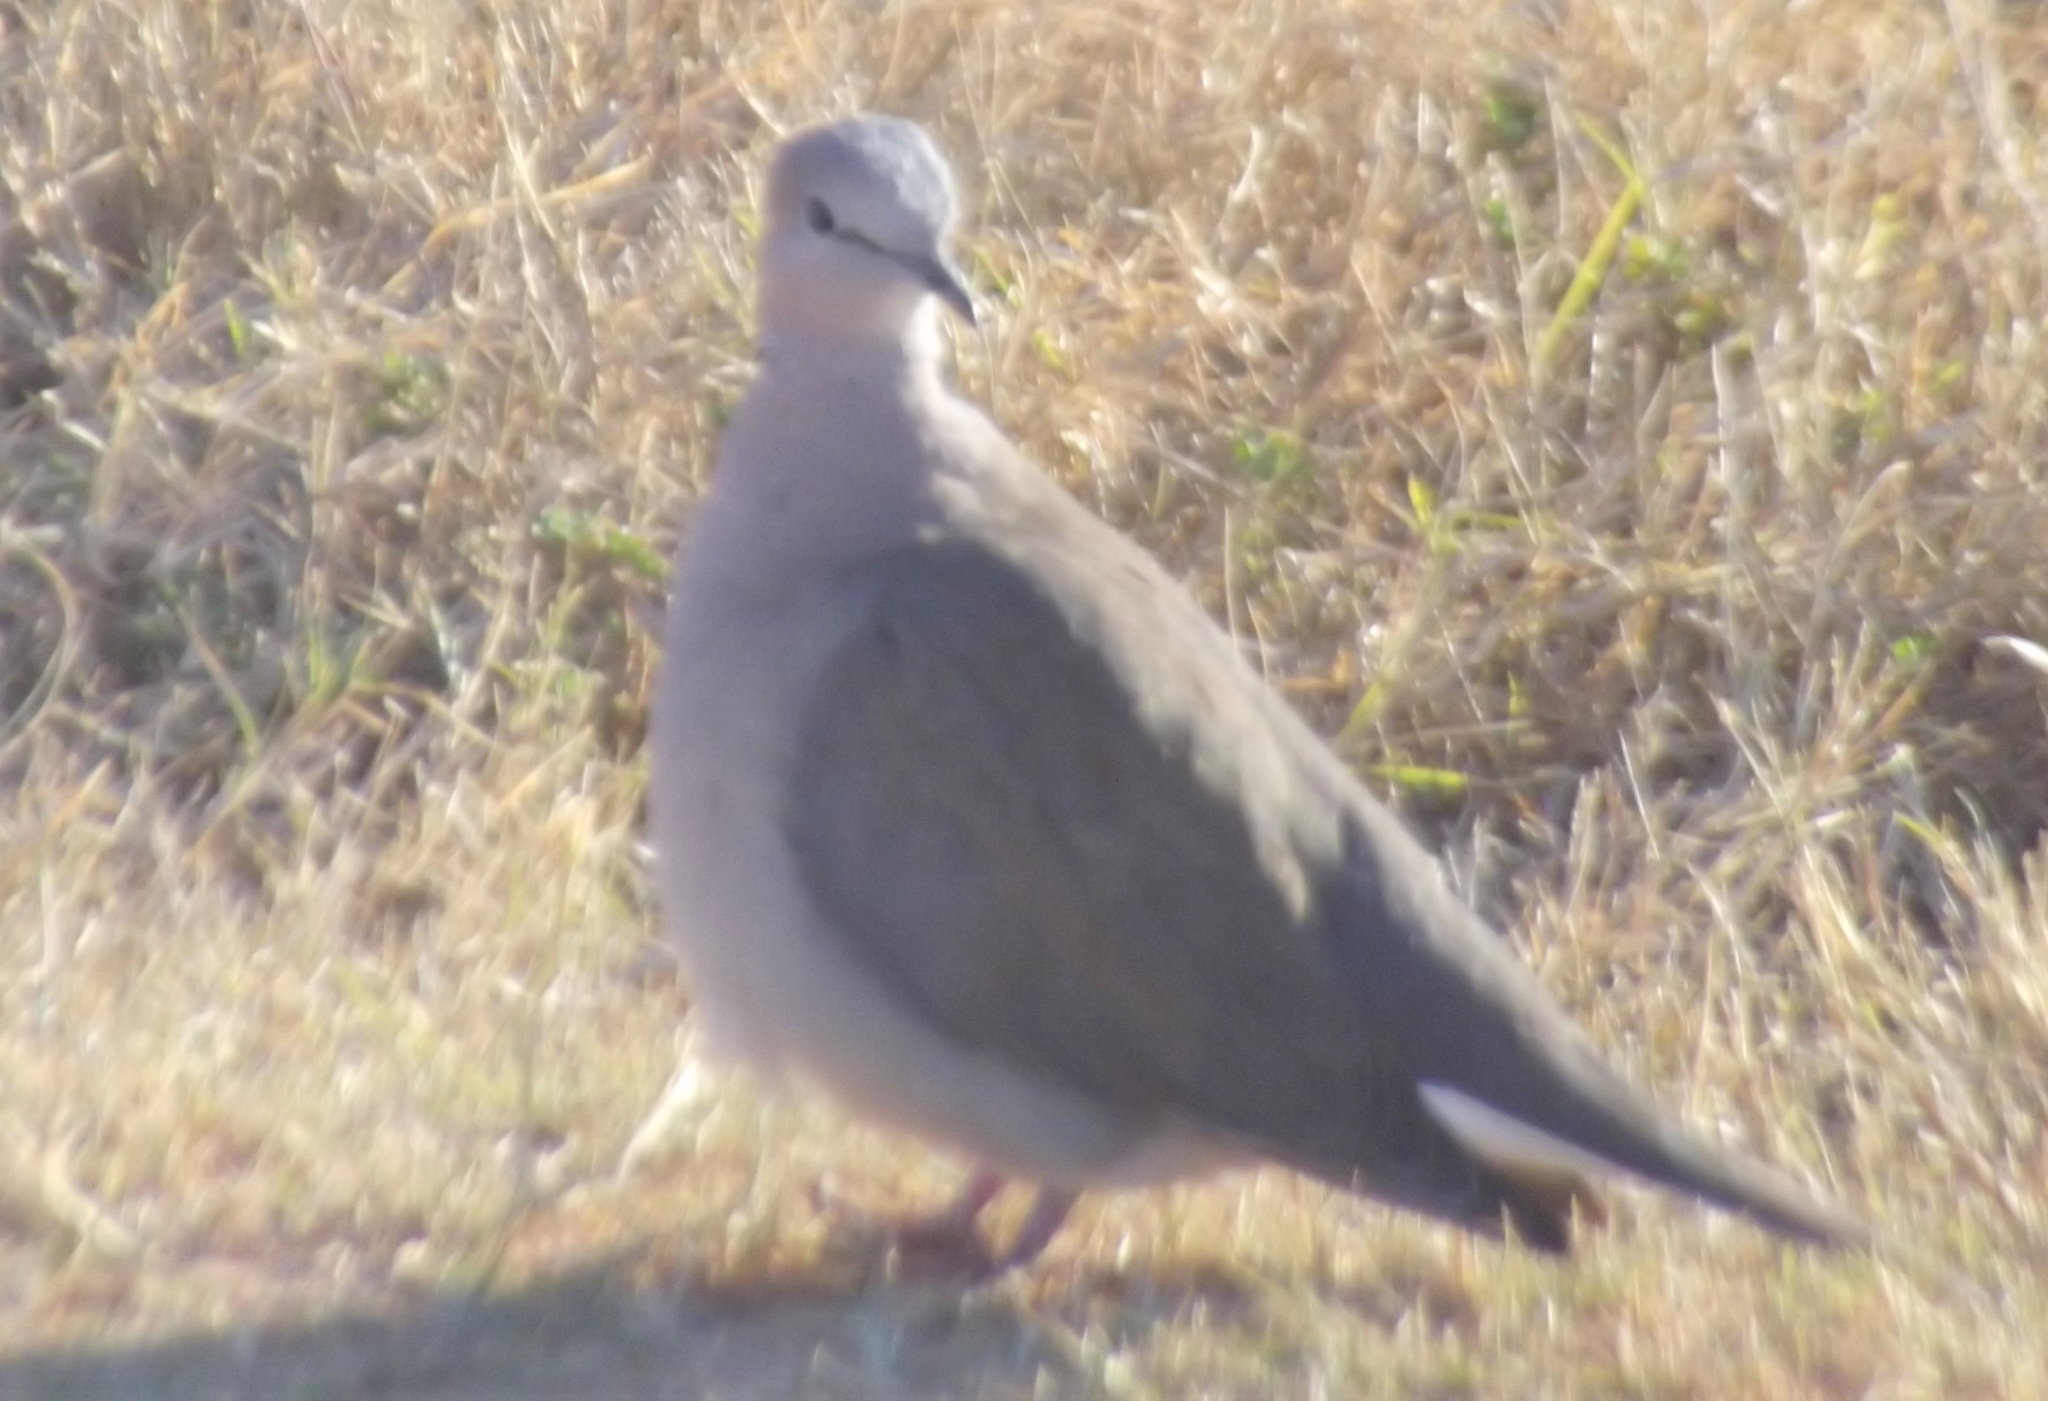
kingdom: Animalia
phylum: Chordata
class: Aves
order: Columbiformes
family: Columbidae
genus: Streptopelia
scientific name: Streptopelia capicola
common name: Ring-necked dove
